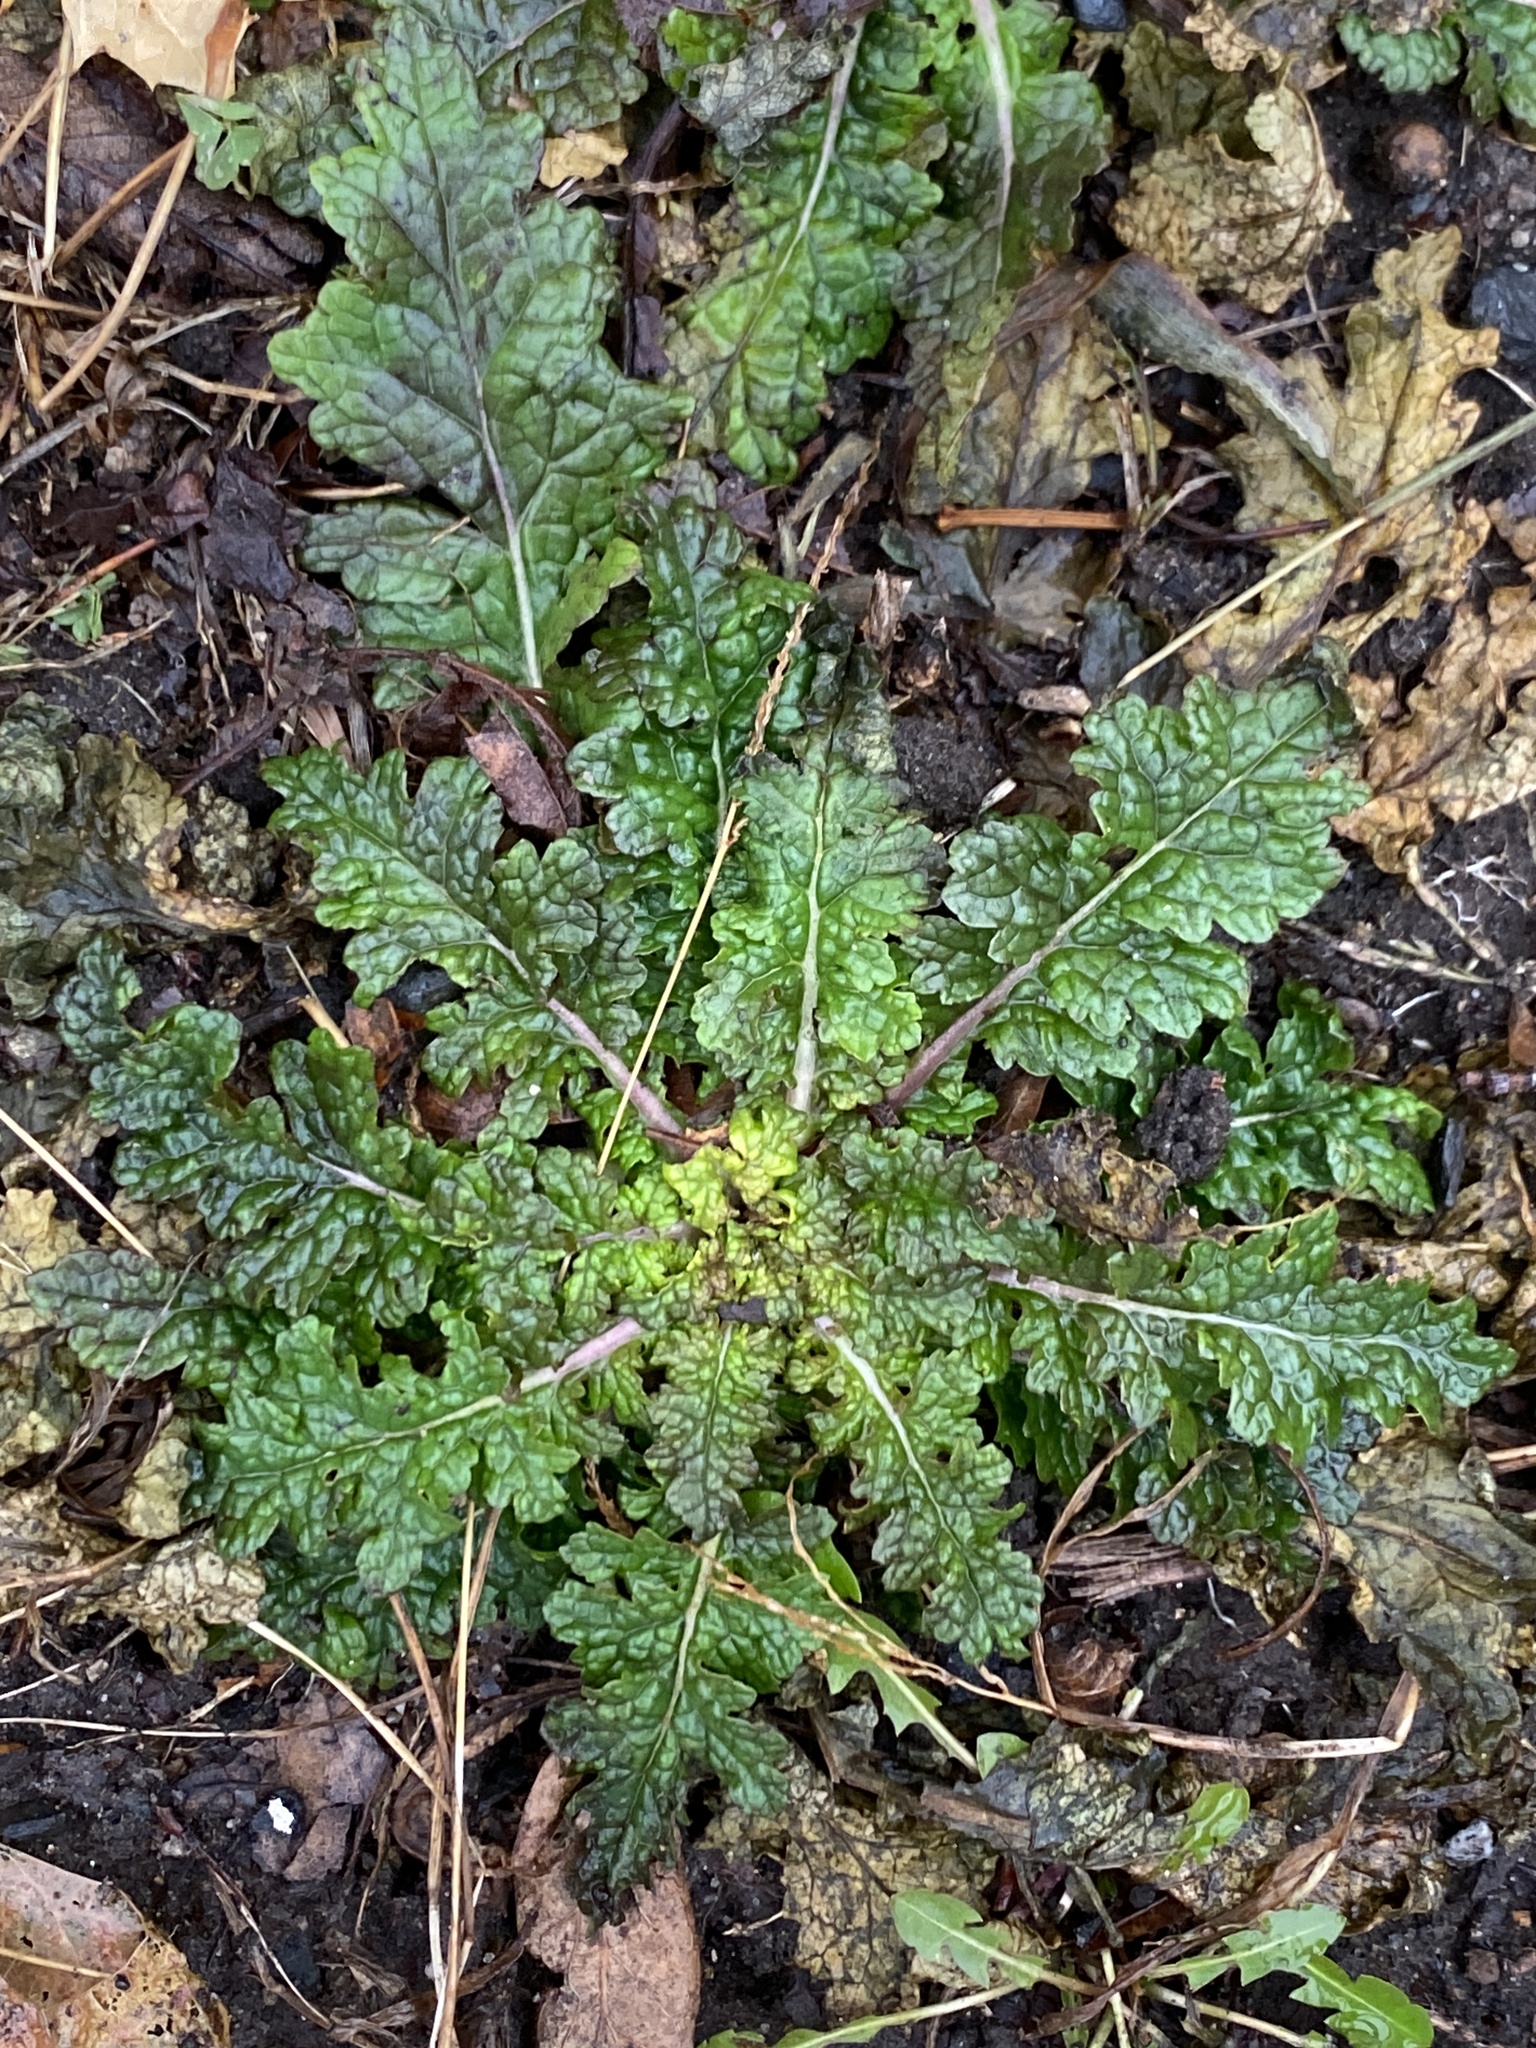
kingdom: Plantae
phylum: Tracheophyta
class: Magnoliopsida
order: Lamiales
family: Scrophulariaceae
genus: Verbascum
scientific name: Verbascum blattaria
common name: Moth mullein
